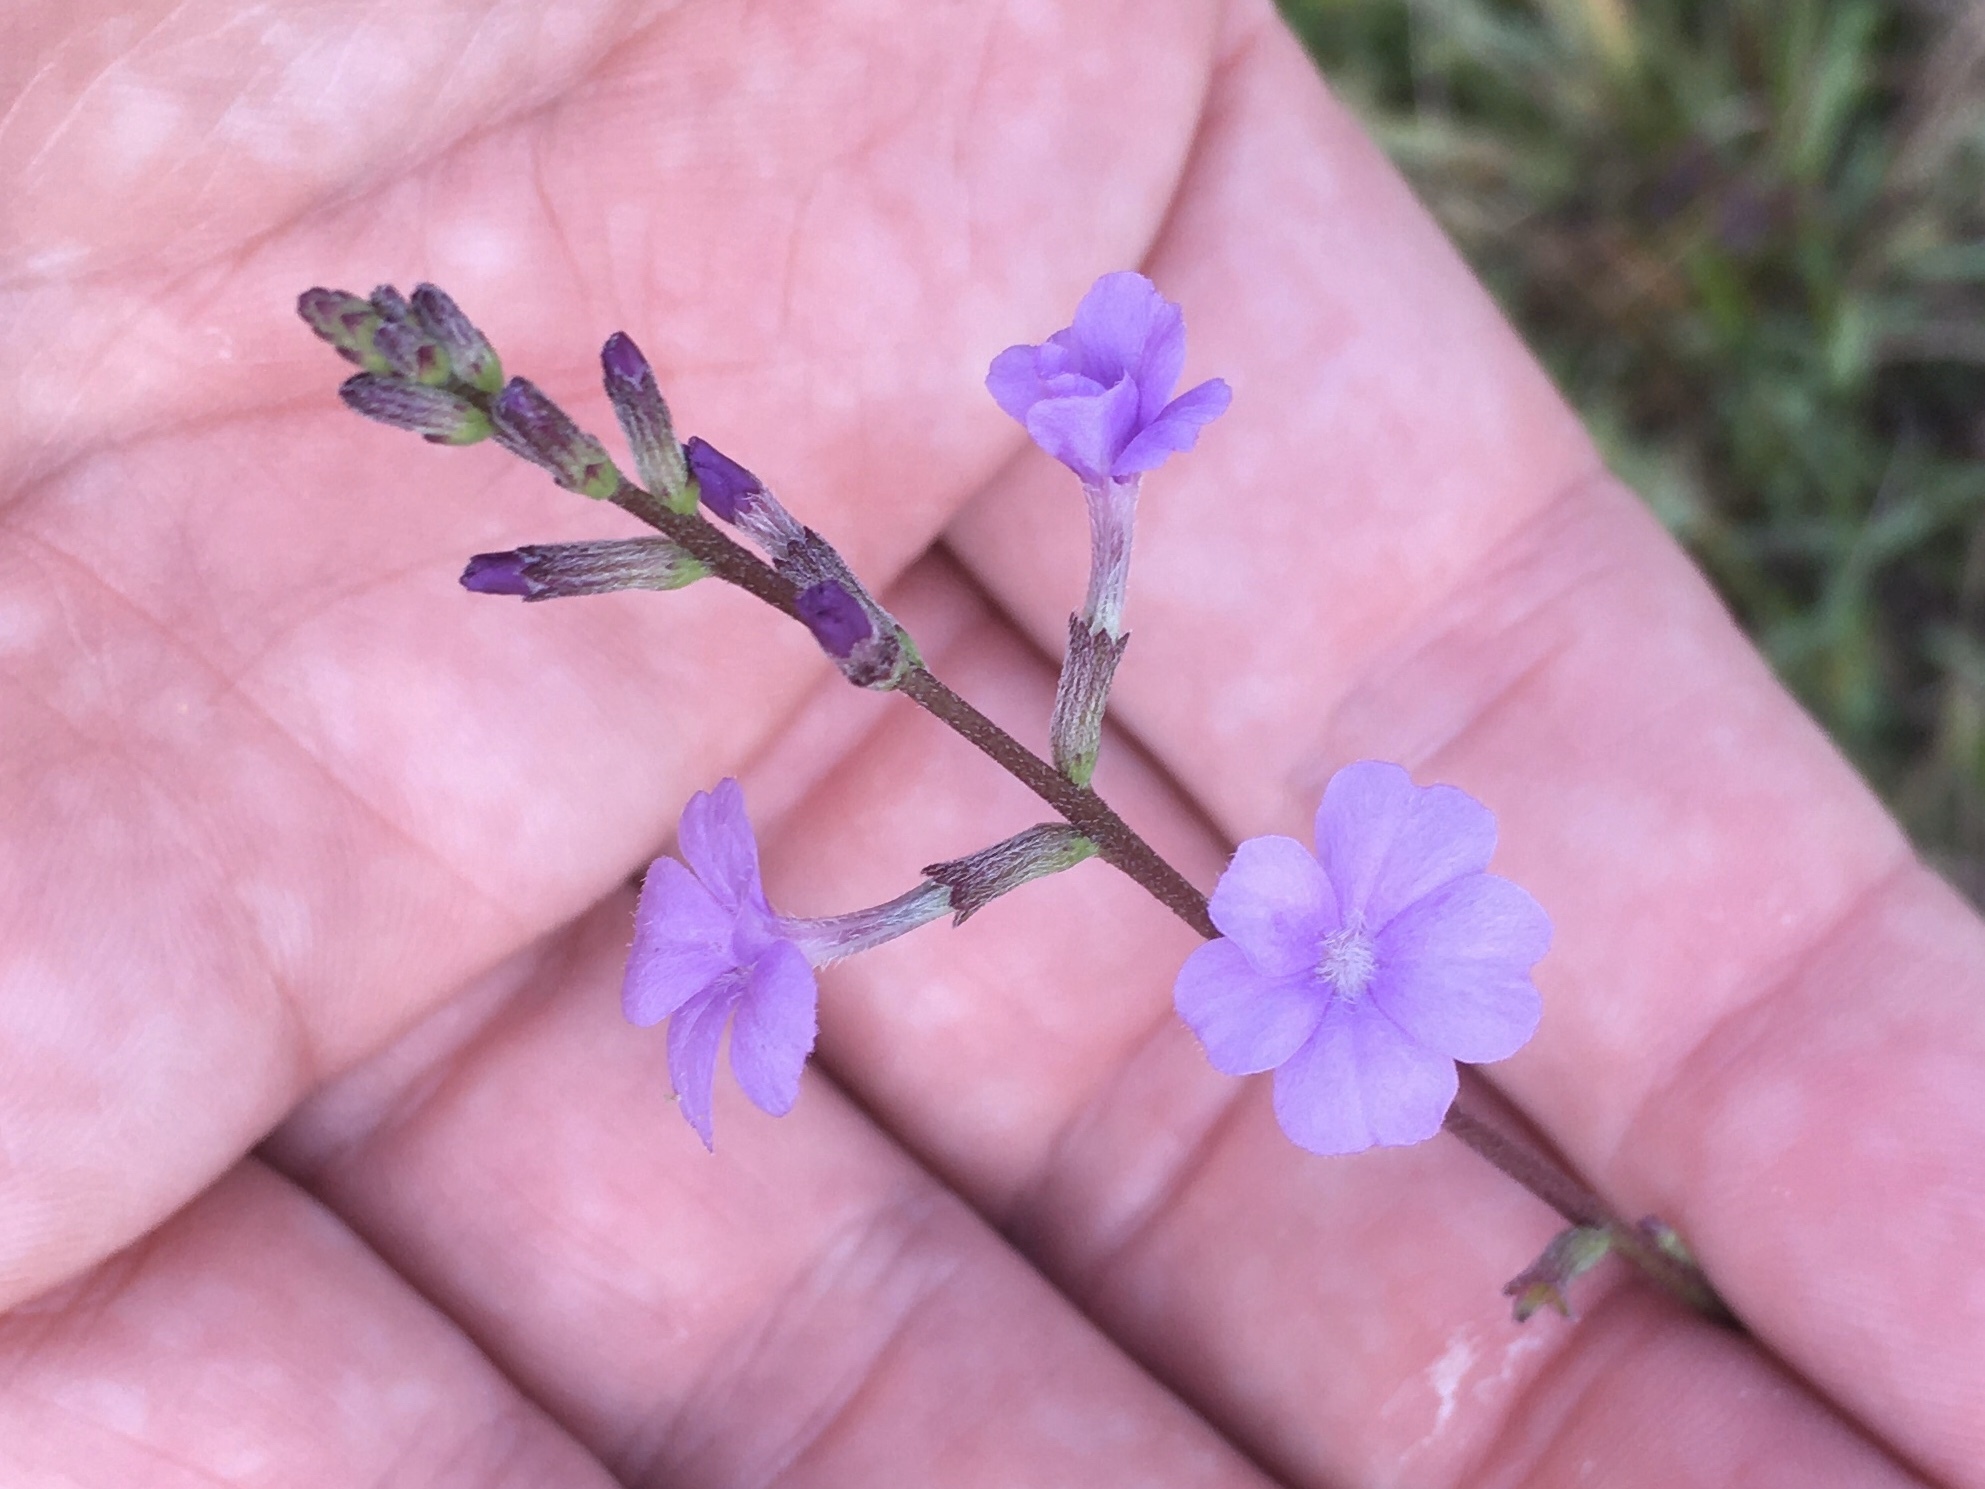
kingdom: Plantae
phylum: Tracheophyta
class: Magnoliopsida
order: Lamiales
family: Orobanchaceae
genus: Buchnera
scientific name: Buchnera floridana
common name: Florida bluehearts
